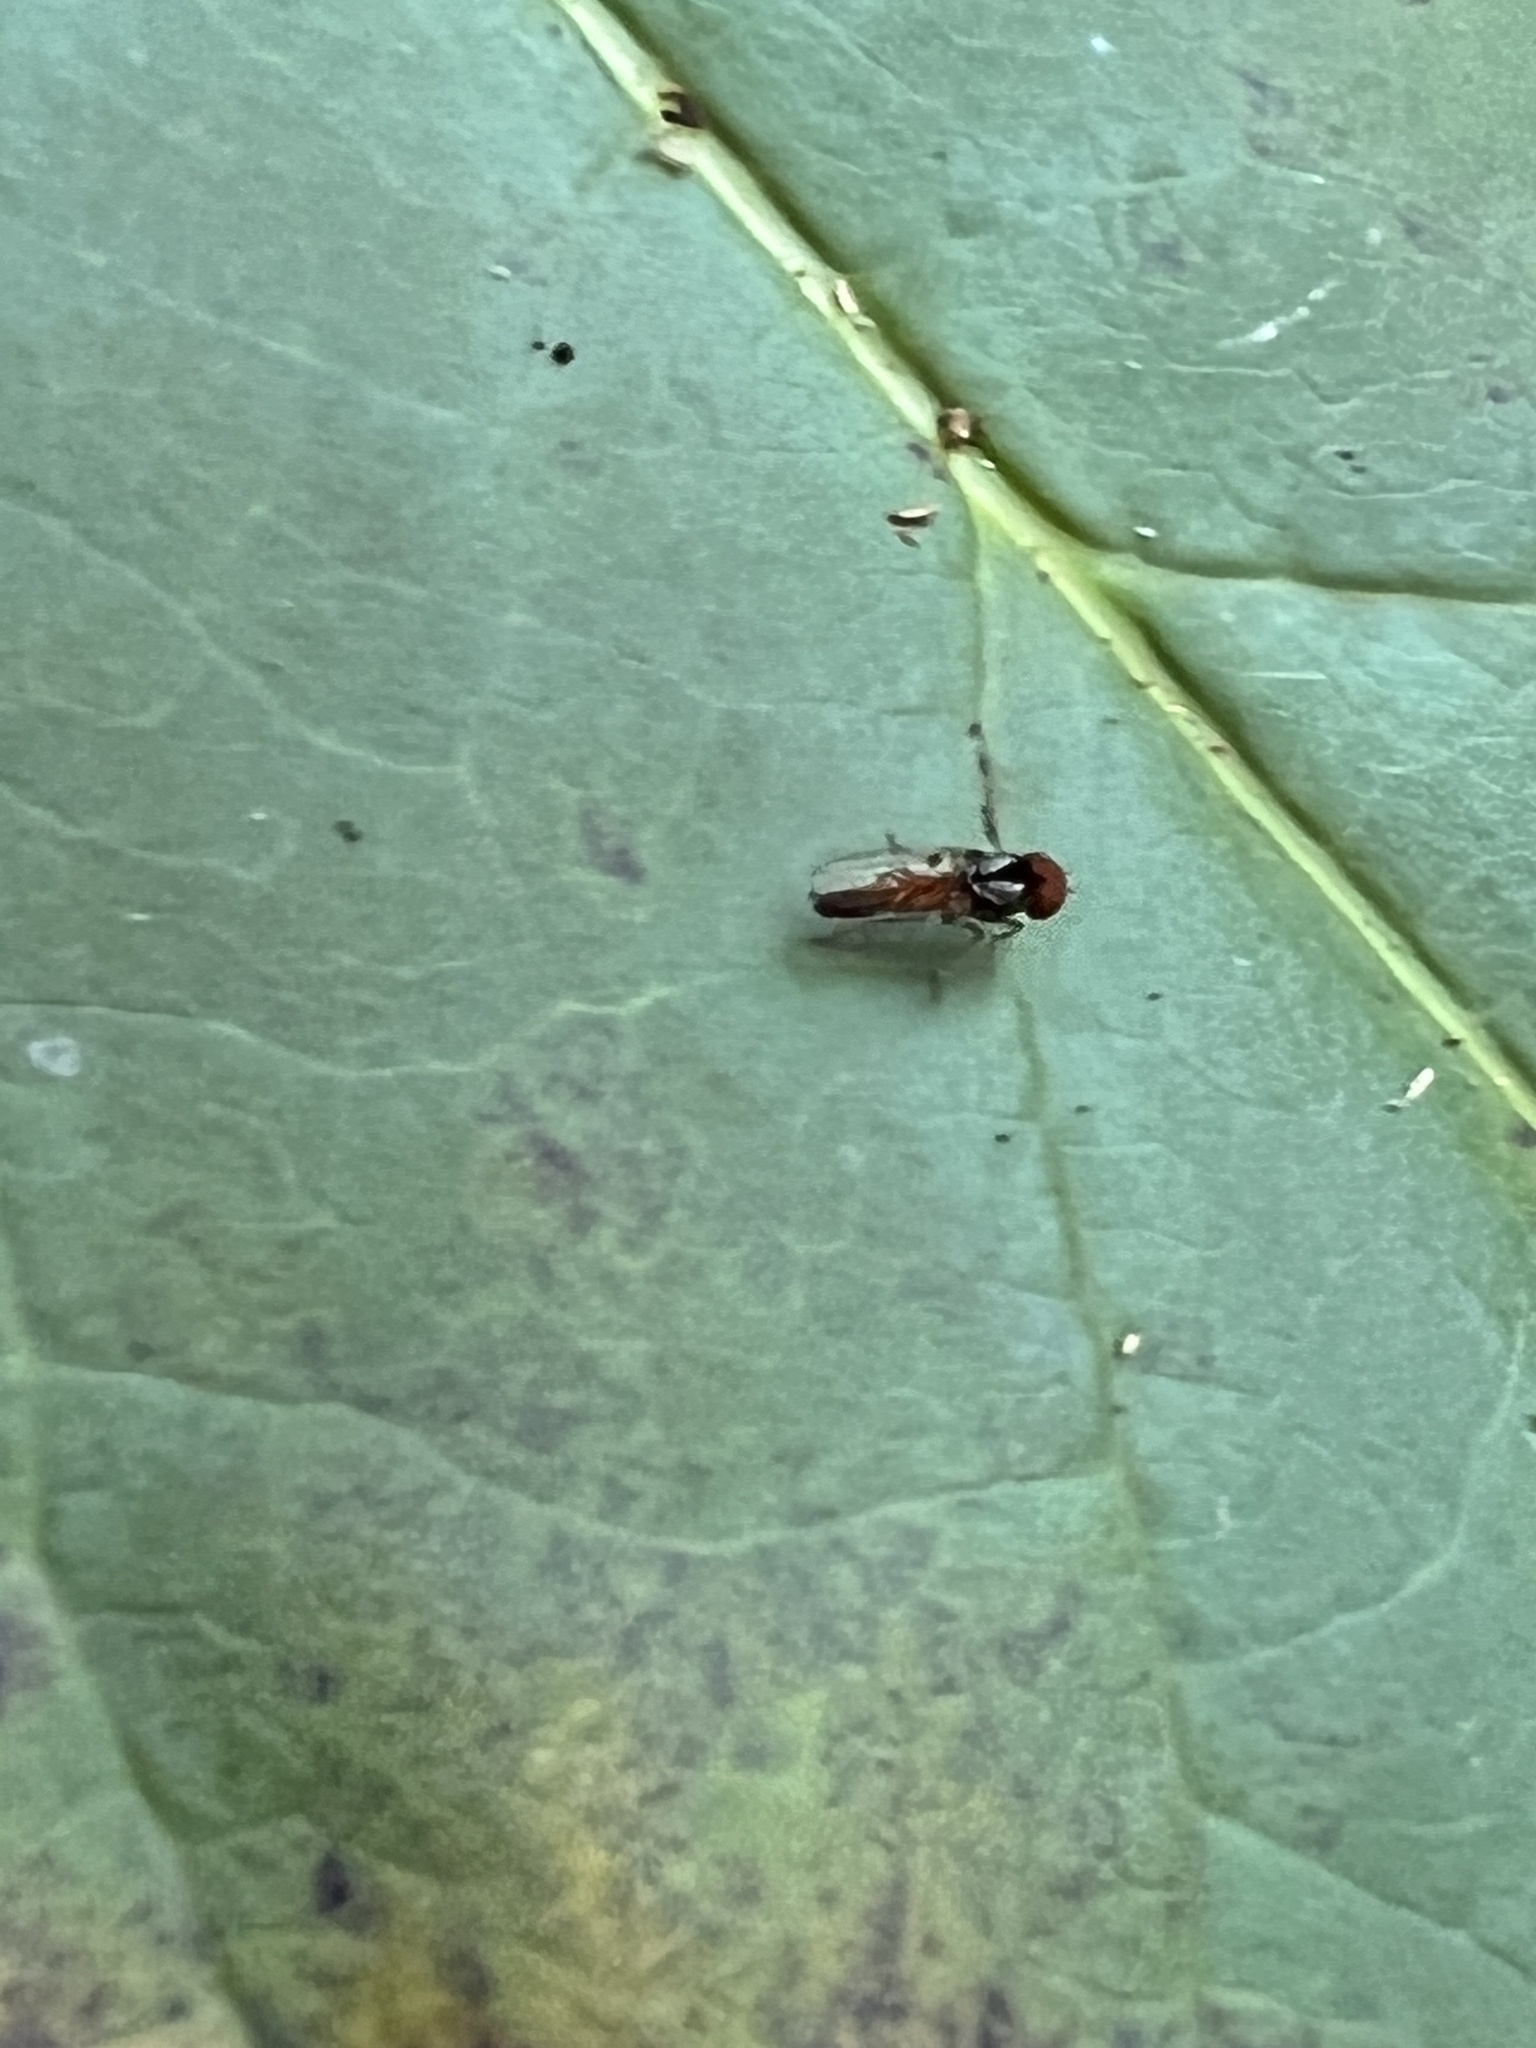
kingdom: Animalia
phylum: Arthropoda
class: Insecta
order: Diptera
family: Platypezidae
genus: Bertamyia
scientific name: Bertamyia notata
